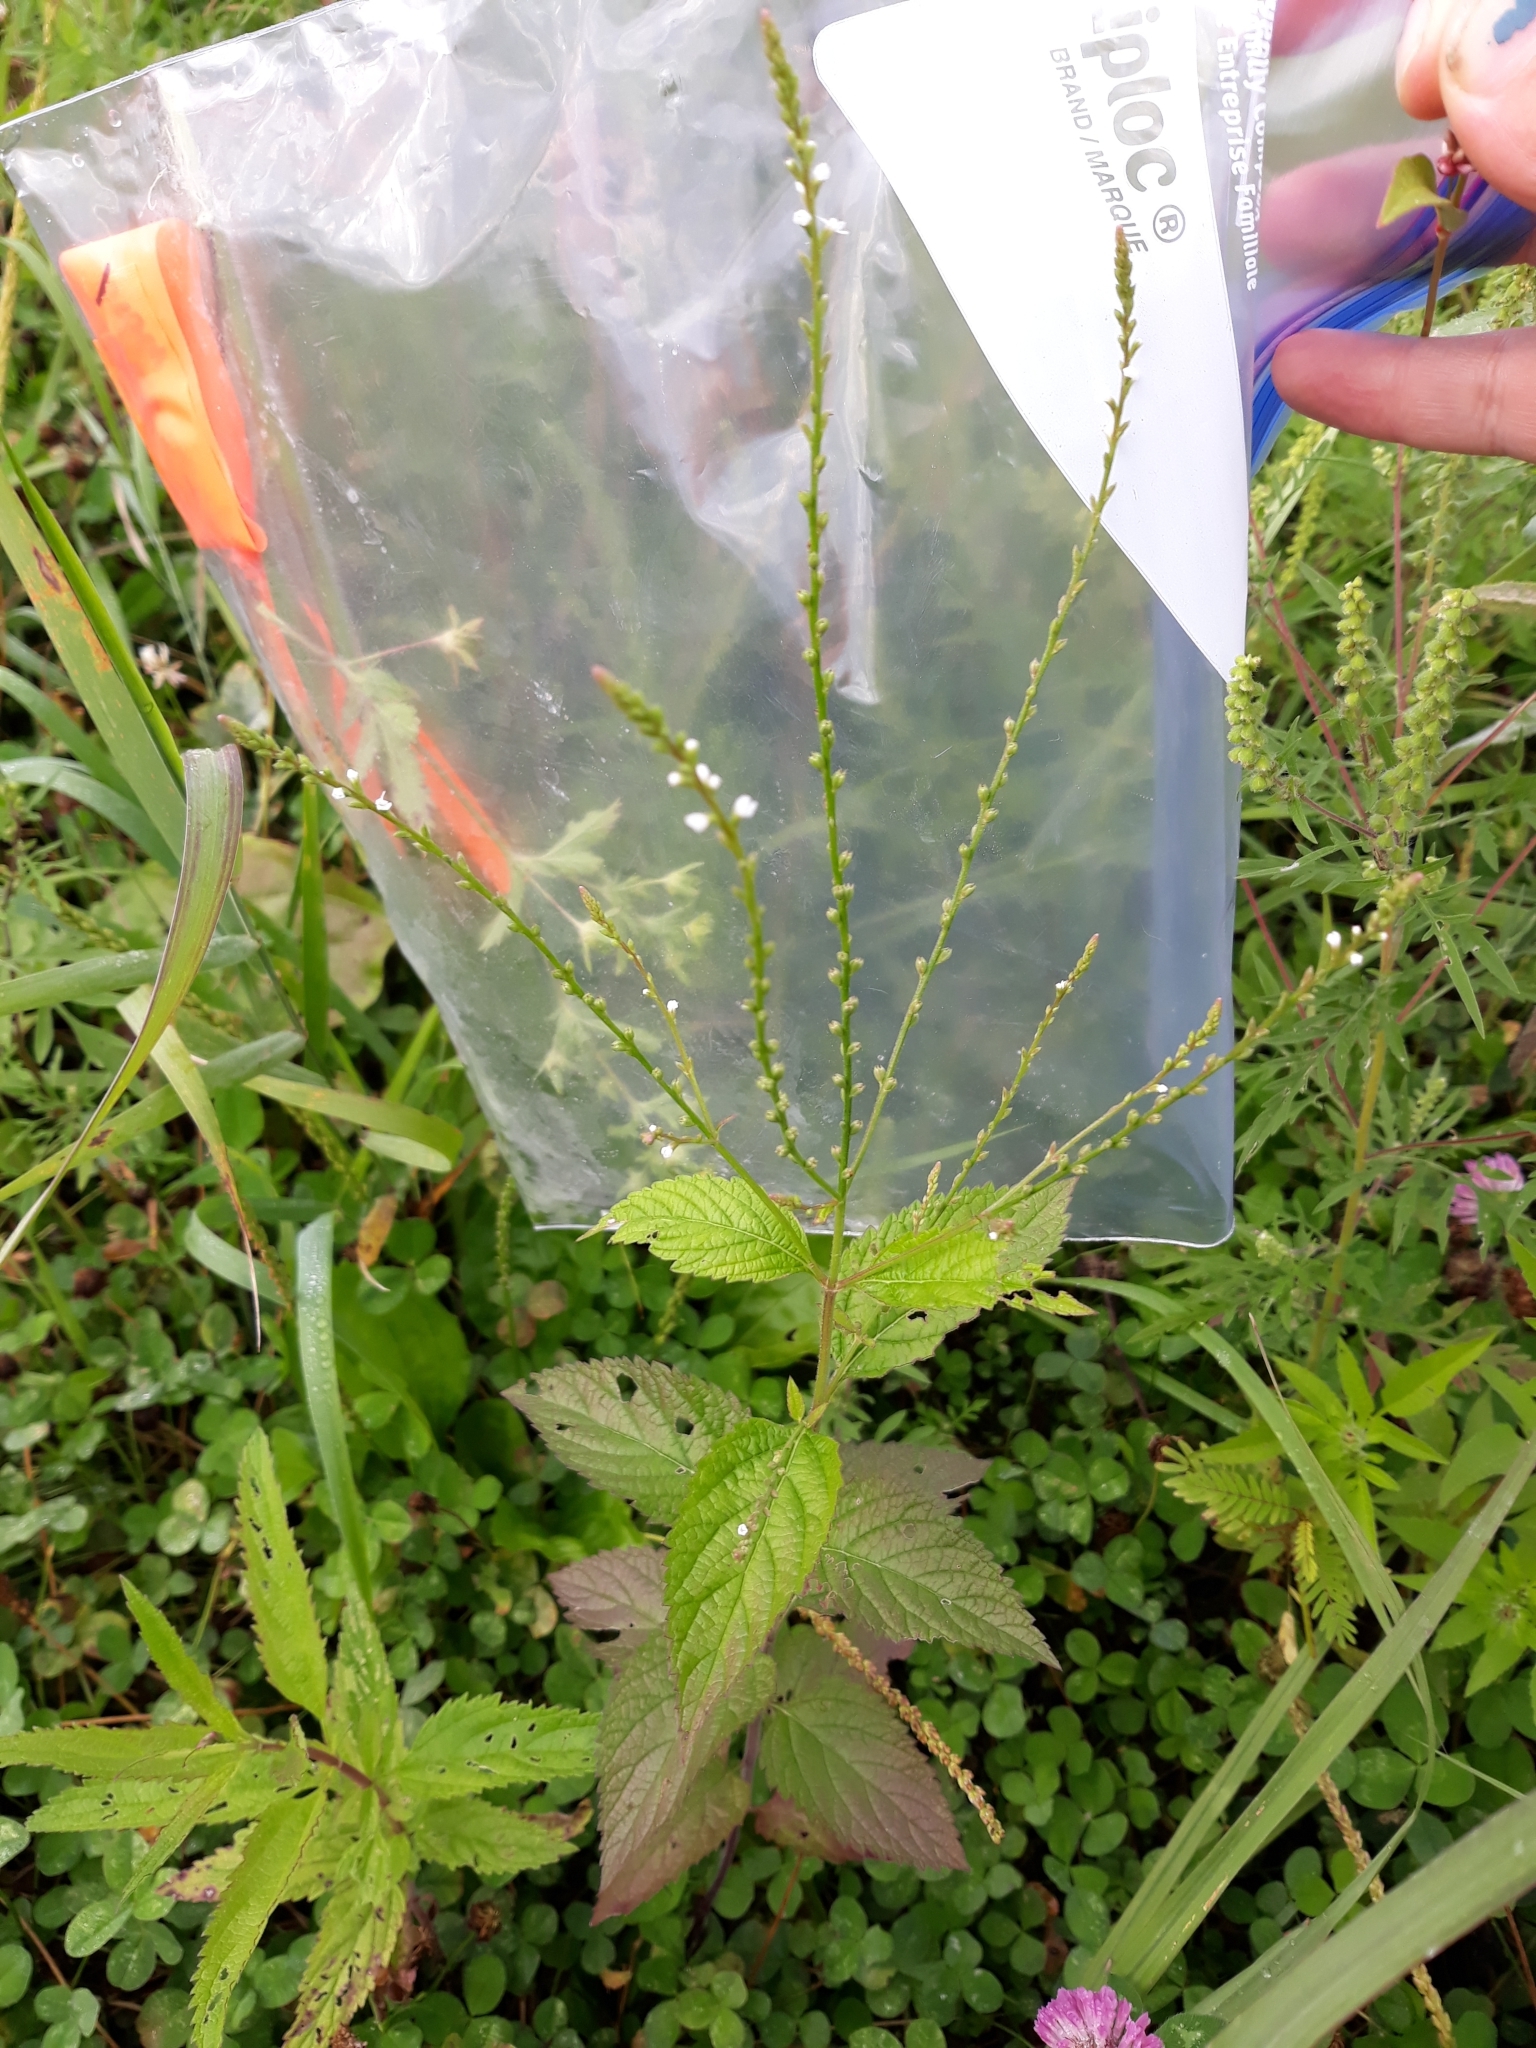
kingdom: Plantae
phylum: Tracheophyta
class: Magnoliopsida
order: Lamiales
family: Verbenaceae
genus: Verbena
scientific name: Verbena urticifolia
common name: Nettle-leaved vervain
